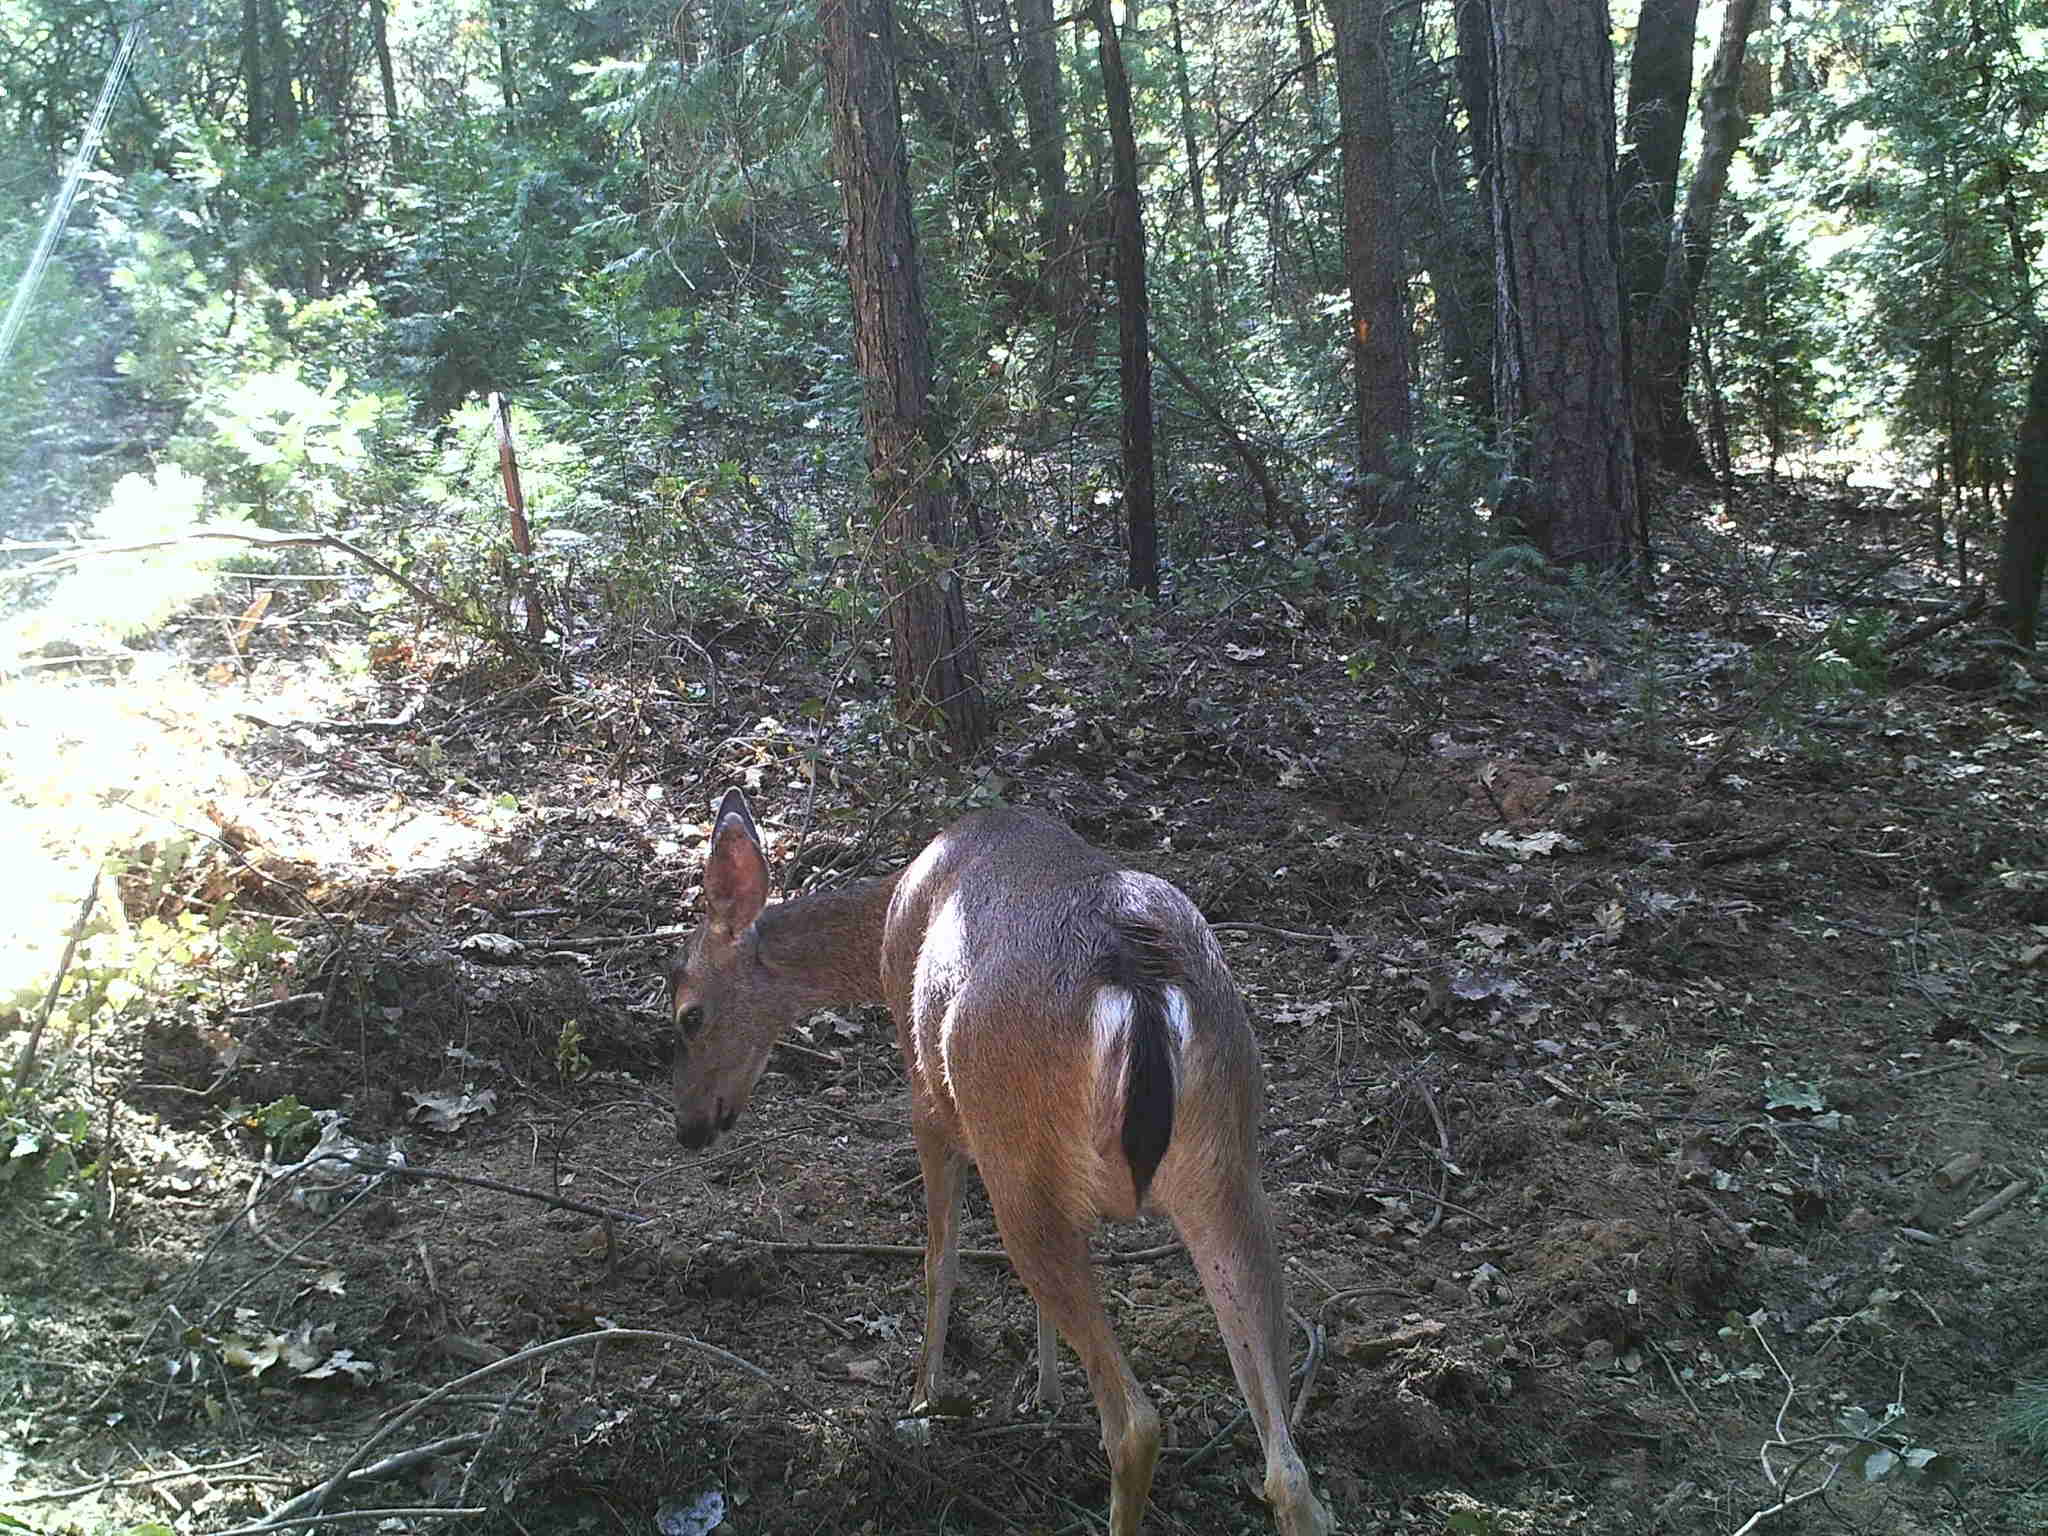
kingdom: Animalia
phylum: Chordata
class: Mammalia
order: Artiodactyla
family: Cervidae
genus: Odocoileus
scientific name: Odocoileus hemionus
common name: Mule deer
